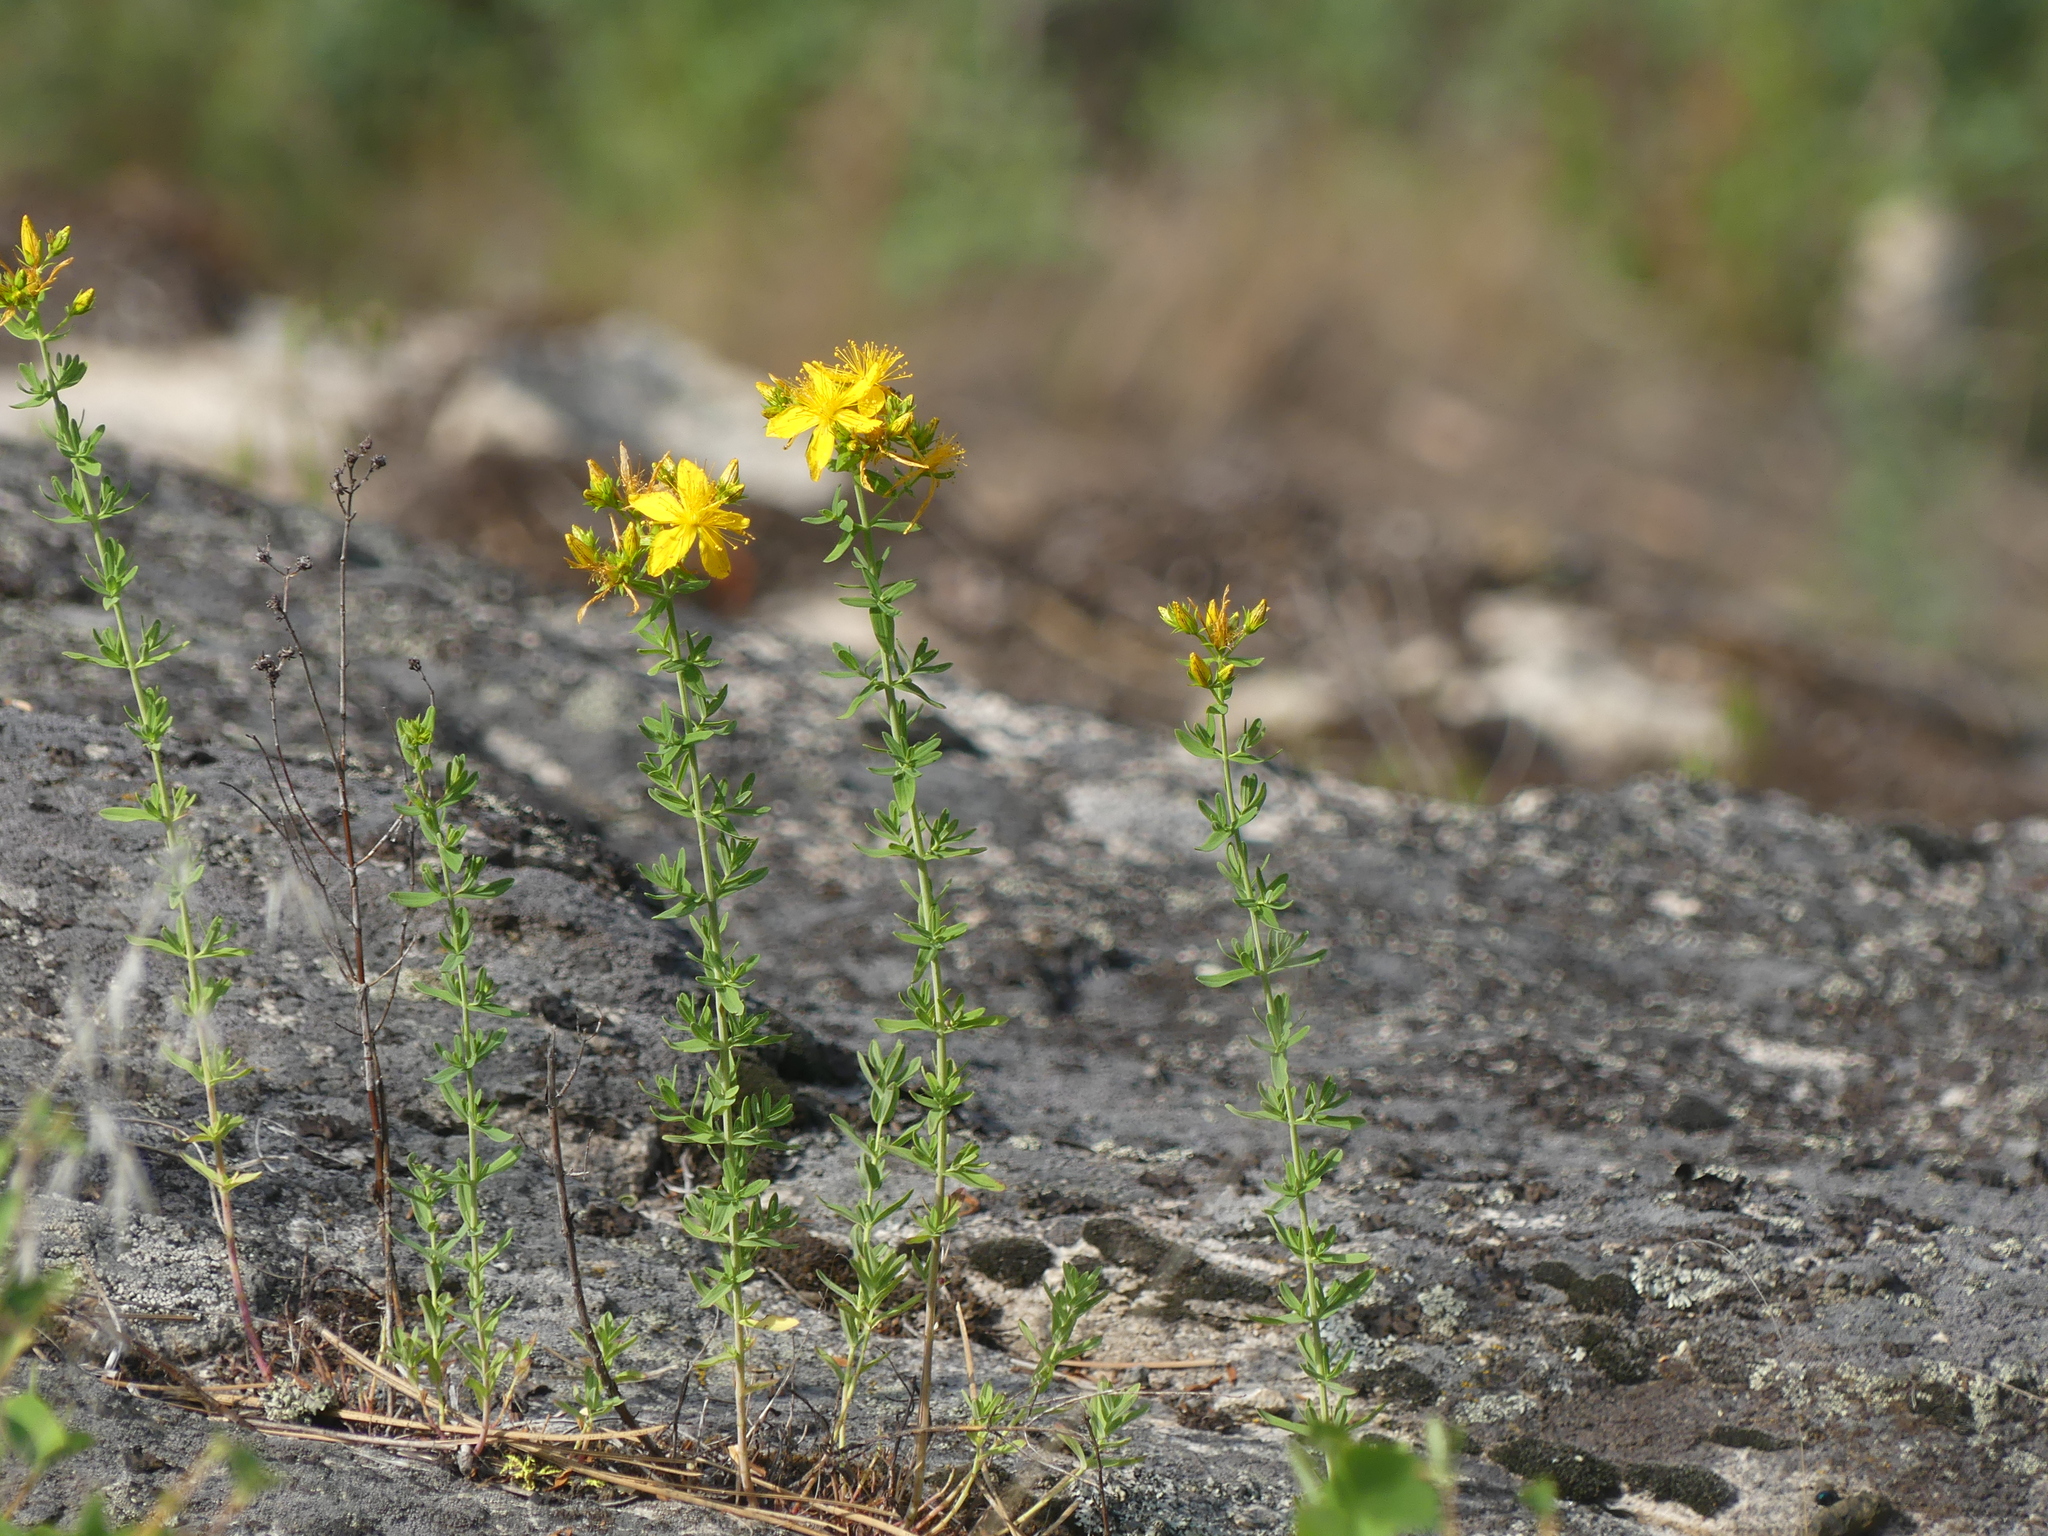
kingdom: Plantae
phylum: Tracheophyta
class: Magnoliopsida
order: Malpighiales
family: Hypericaceae
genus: Hypericum
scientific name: Hypericum perforatum
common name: Common st. johnswort
